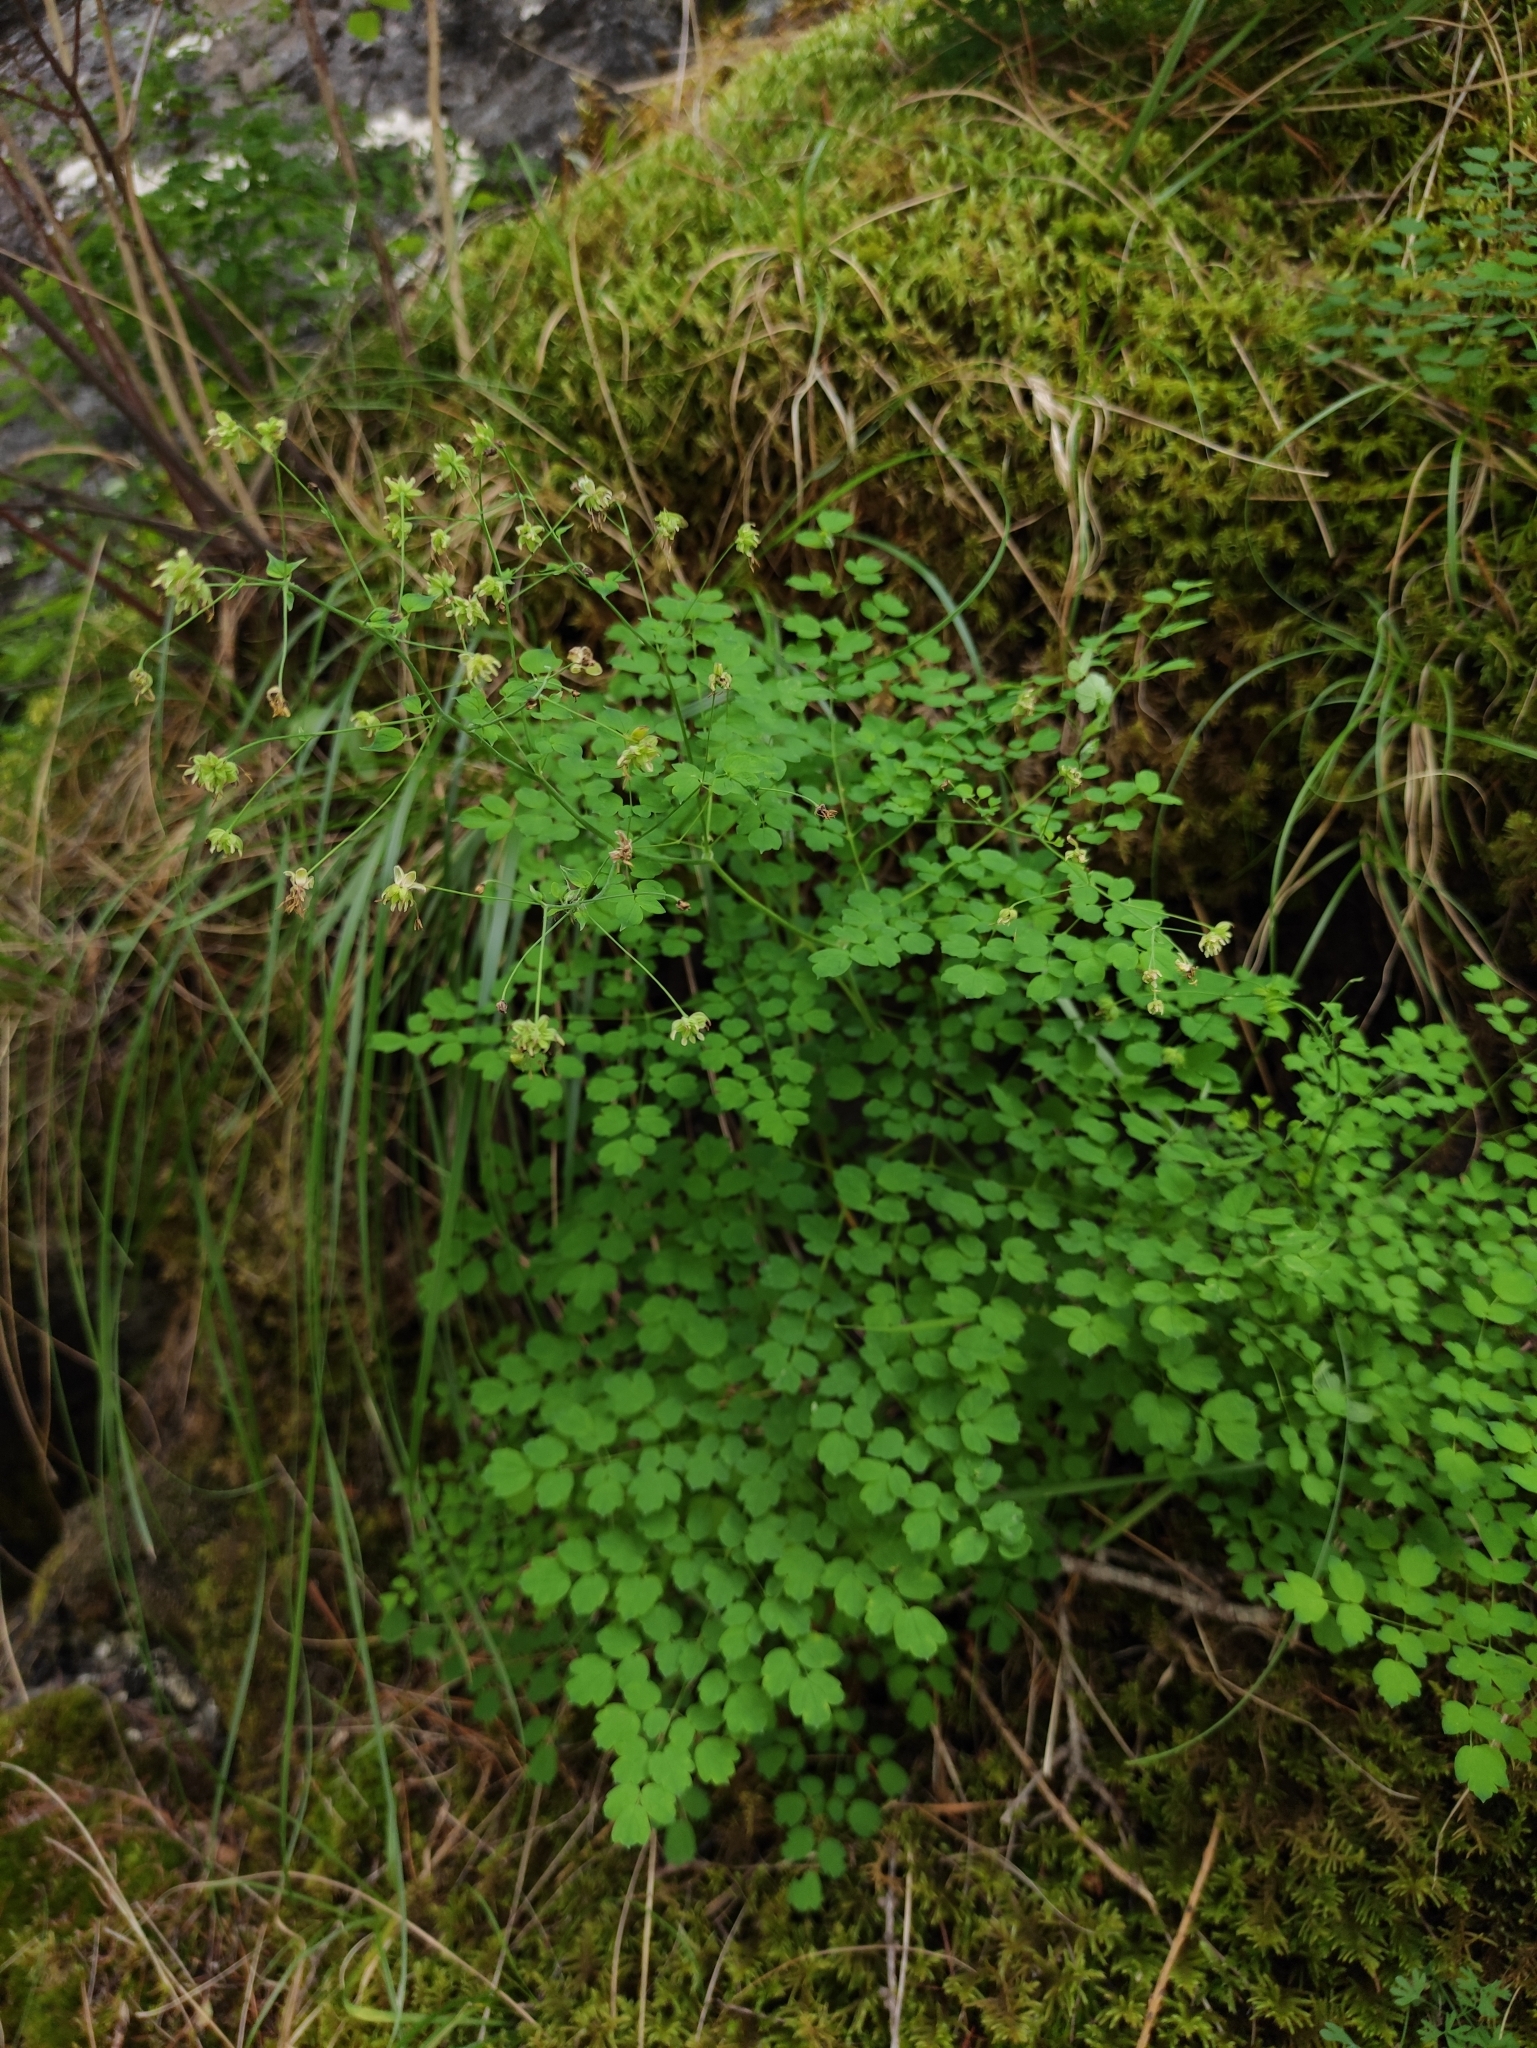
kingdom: Plantae
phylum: Tracheophyta
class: Magnoliopsida
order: Ranunculales
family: Ranunculaceae
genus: Thalictrum
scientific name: Thalictrum foetidum
